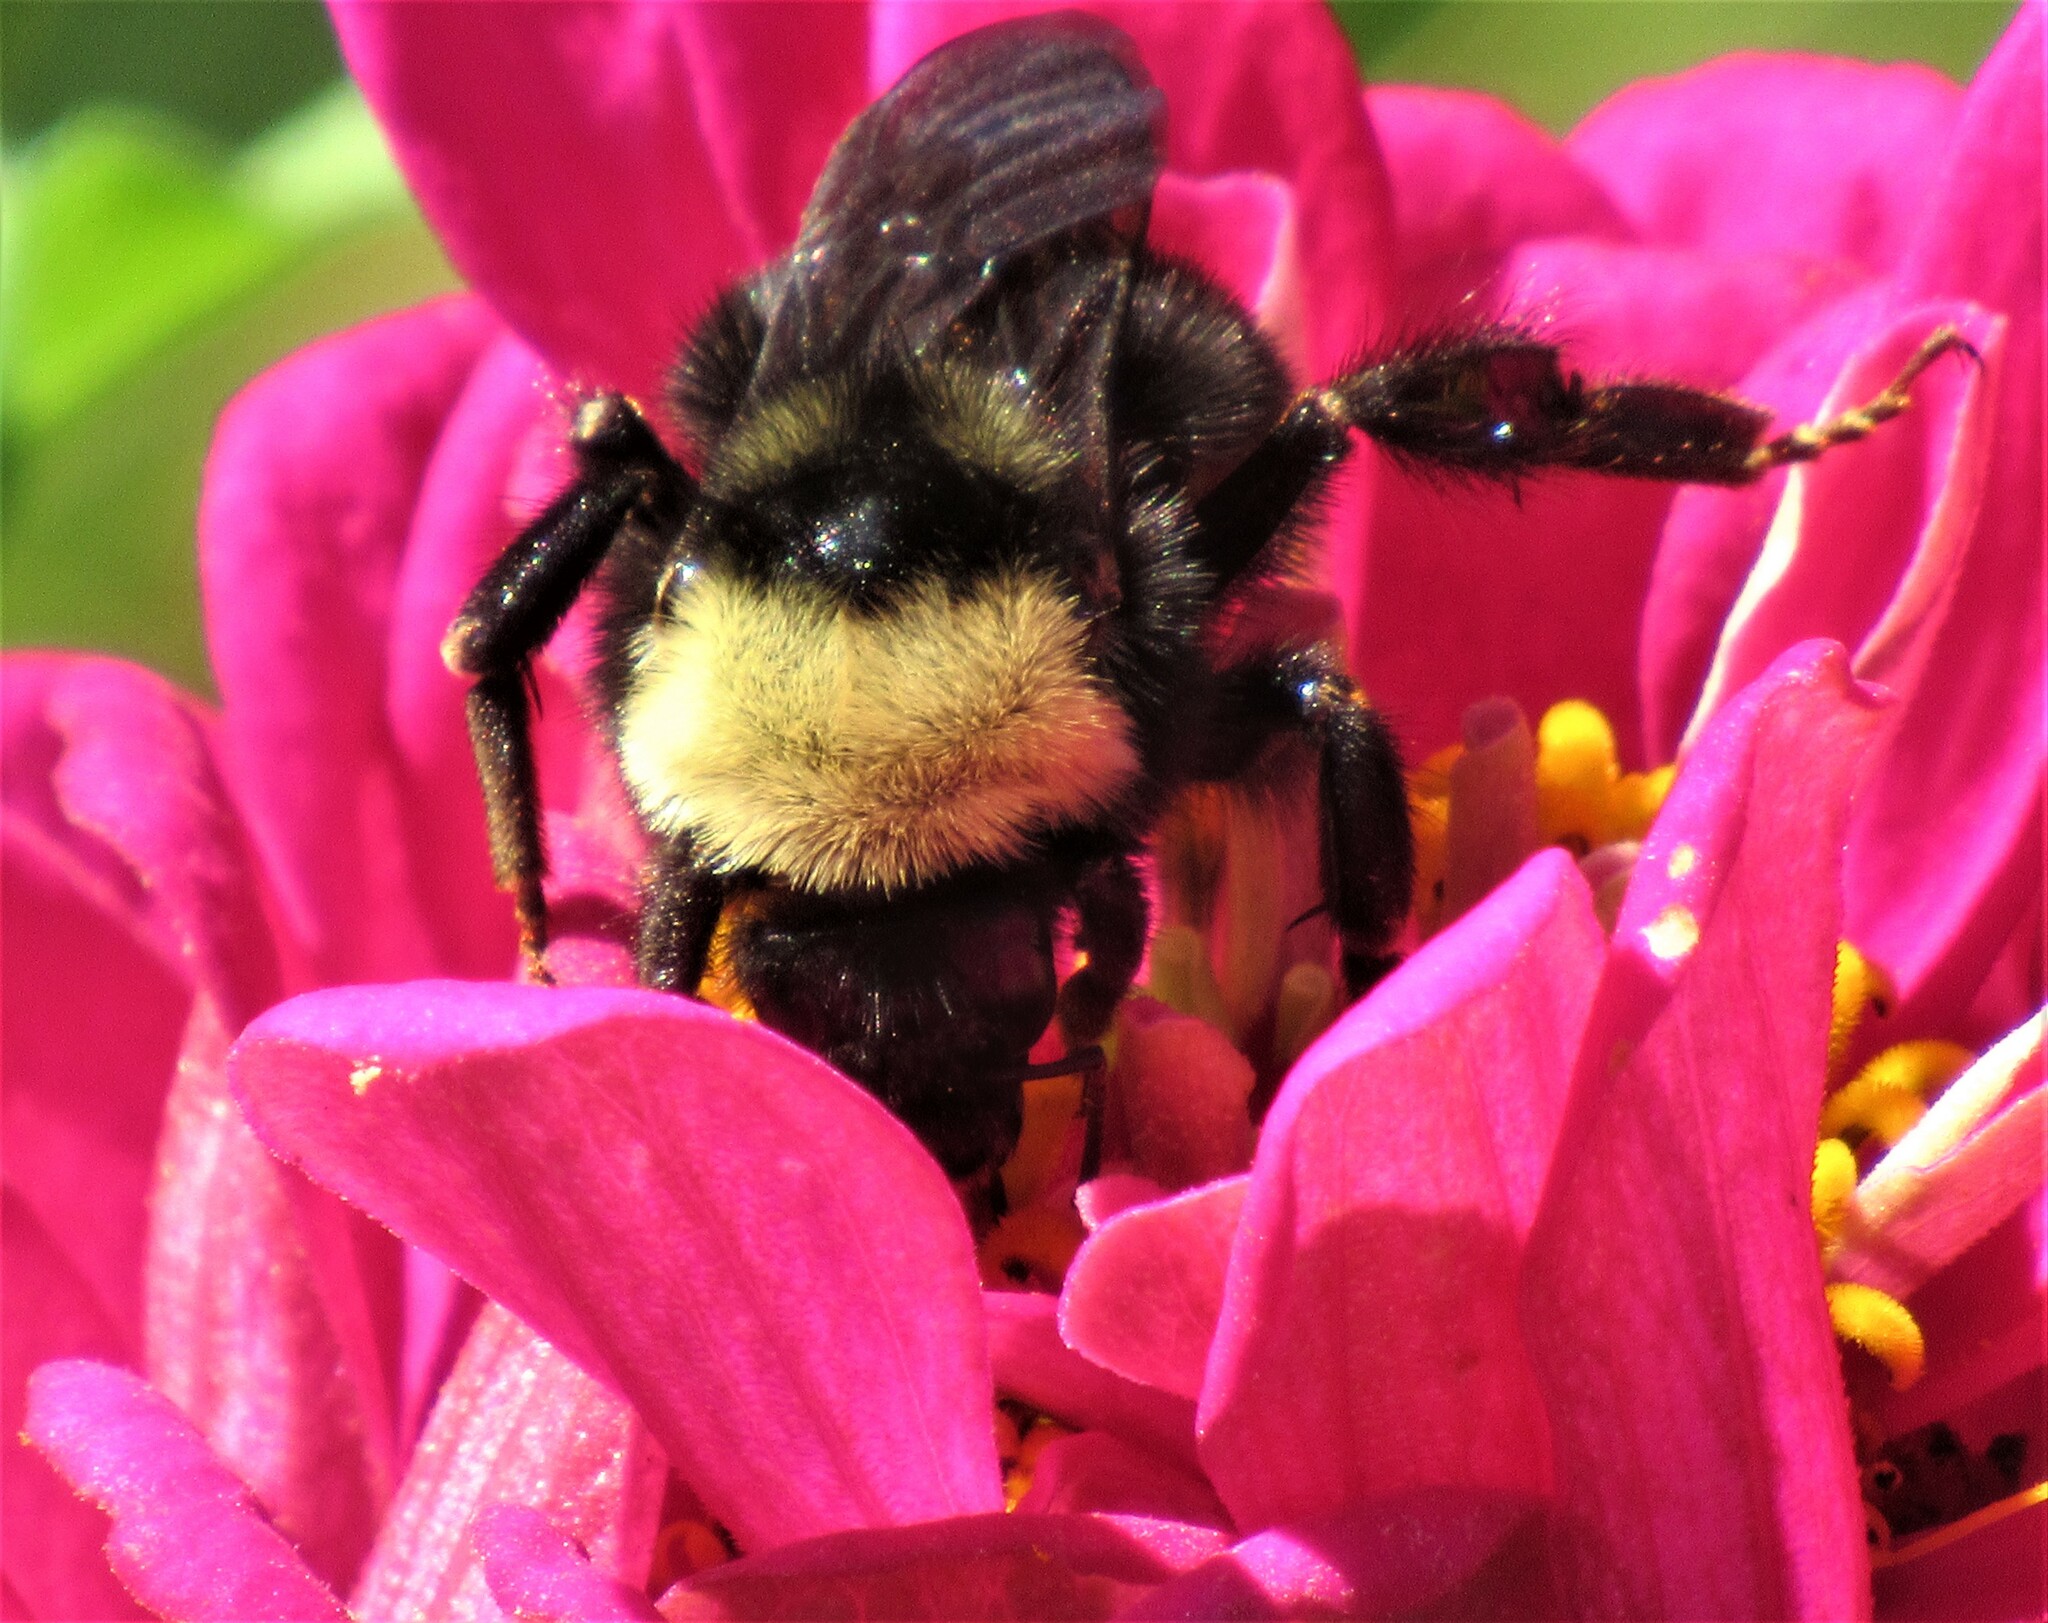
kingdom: Animalia
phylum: Arthropoda
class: Insecta
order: Hymenoptera
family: Apidae
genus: Bombus
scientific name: Bombus californicus
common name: California bumble bee
